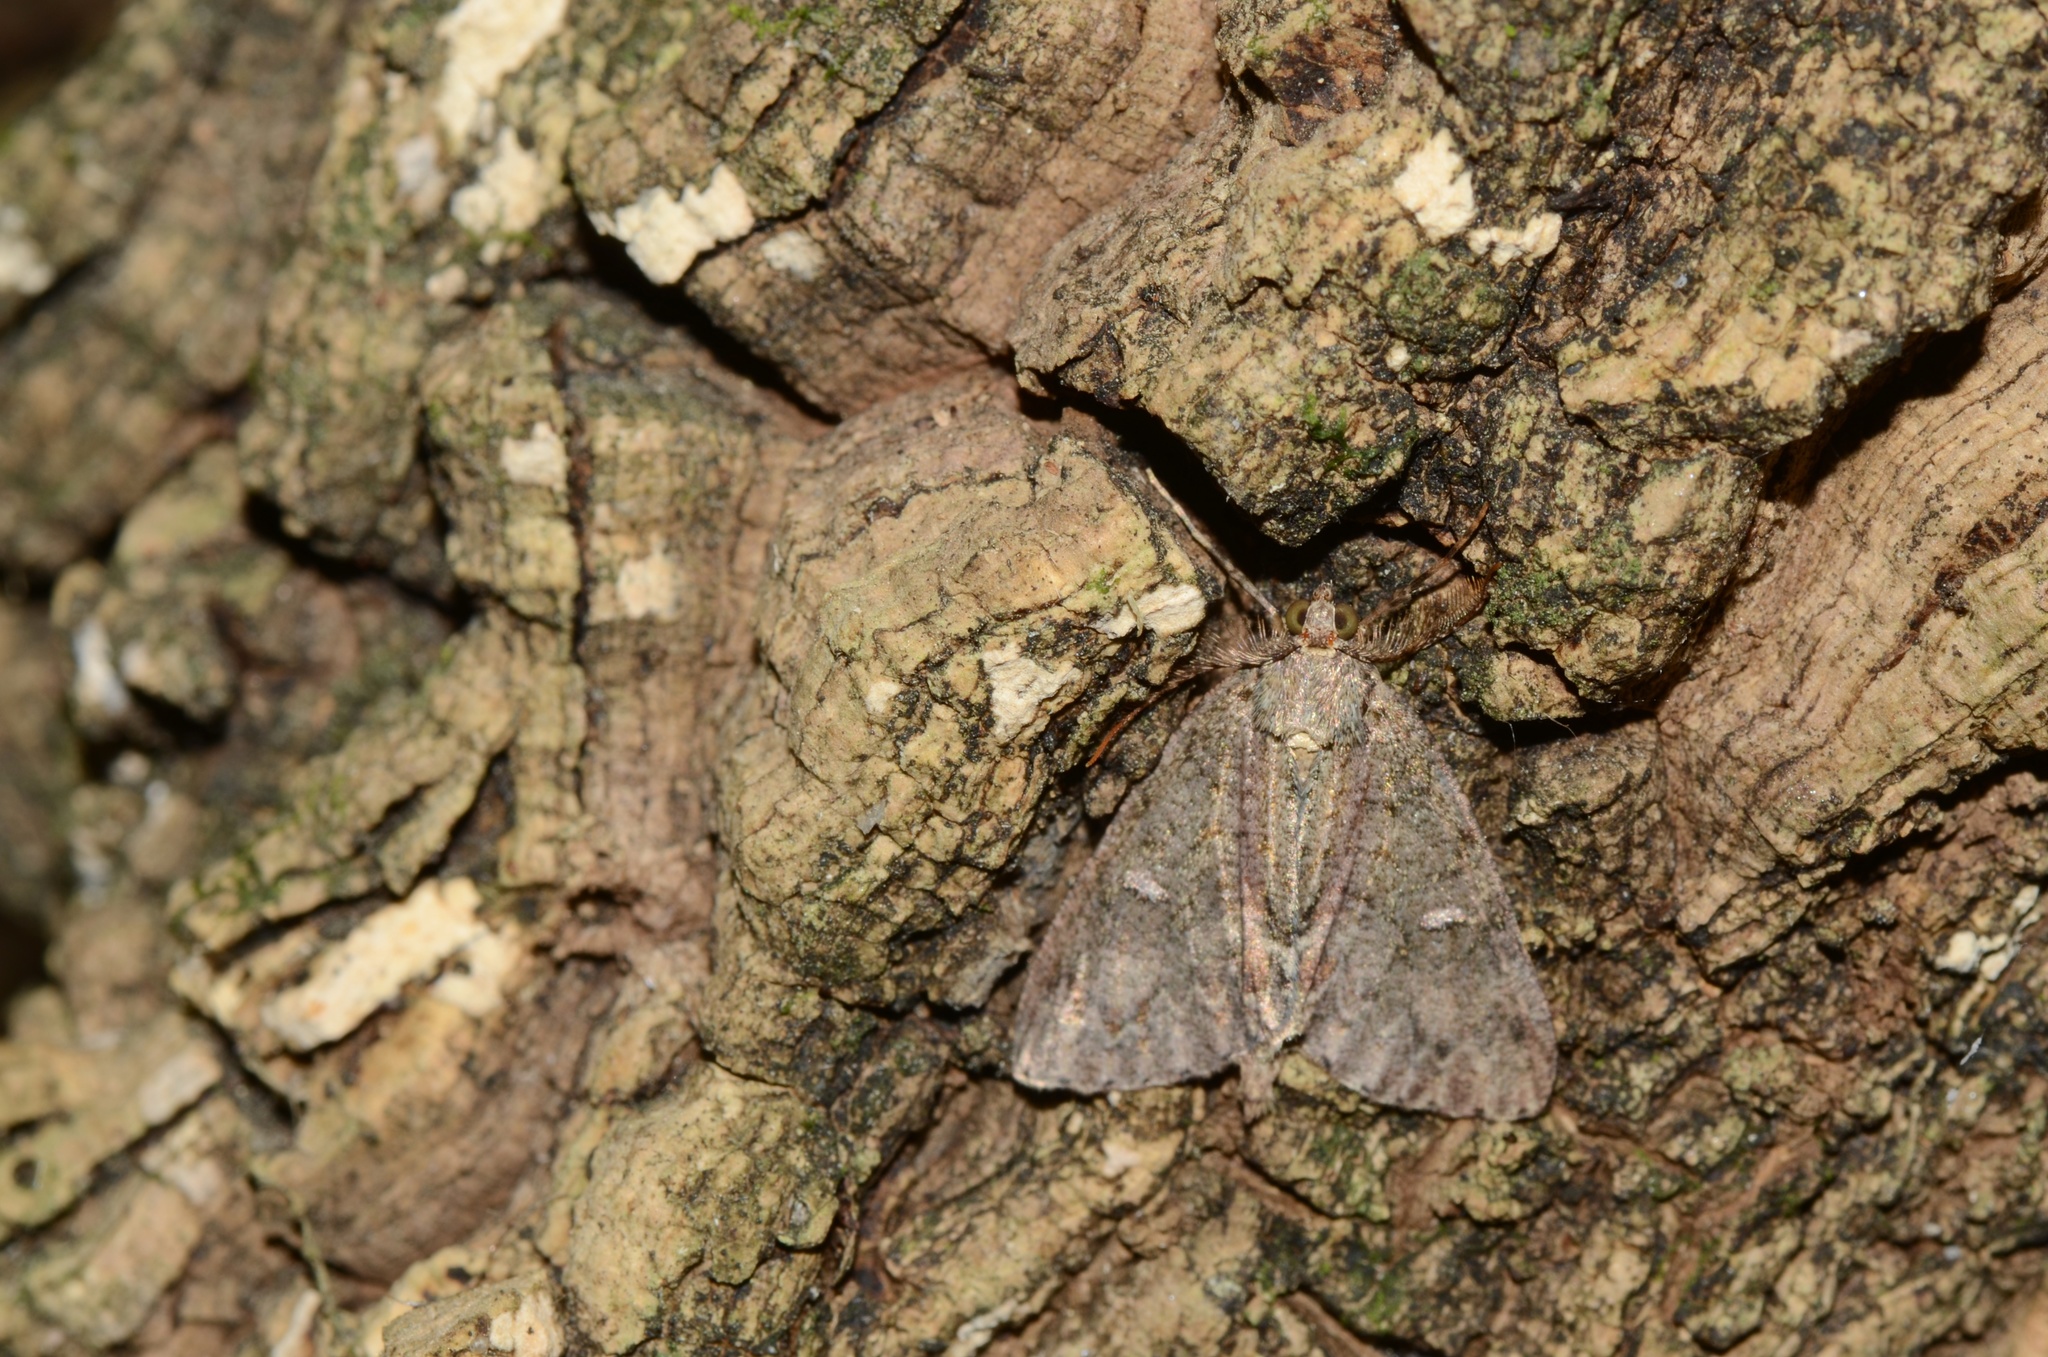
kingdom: Animalia
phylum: Arthropoda
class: Insecta
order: Lepidoptera
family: Geometridae
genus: Pseudocoremia
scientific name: Pseudocoremia suavis
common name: Common forest looper
